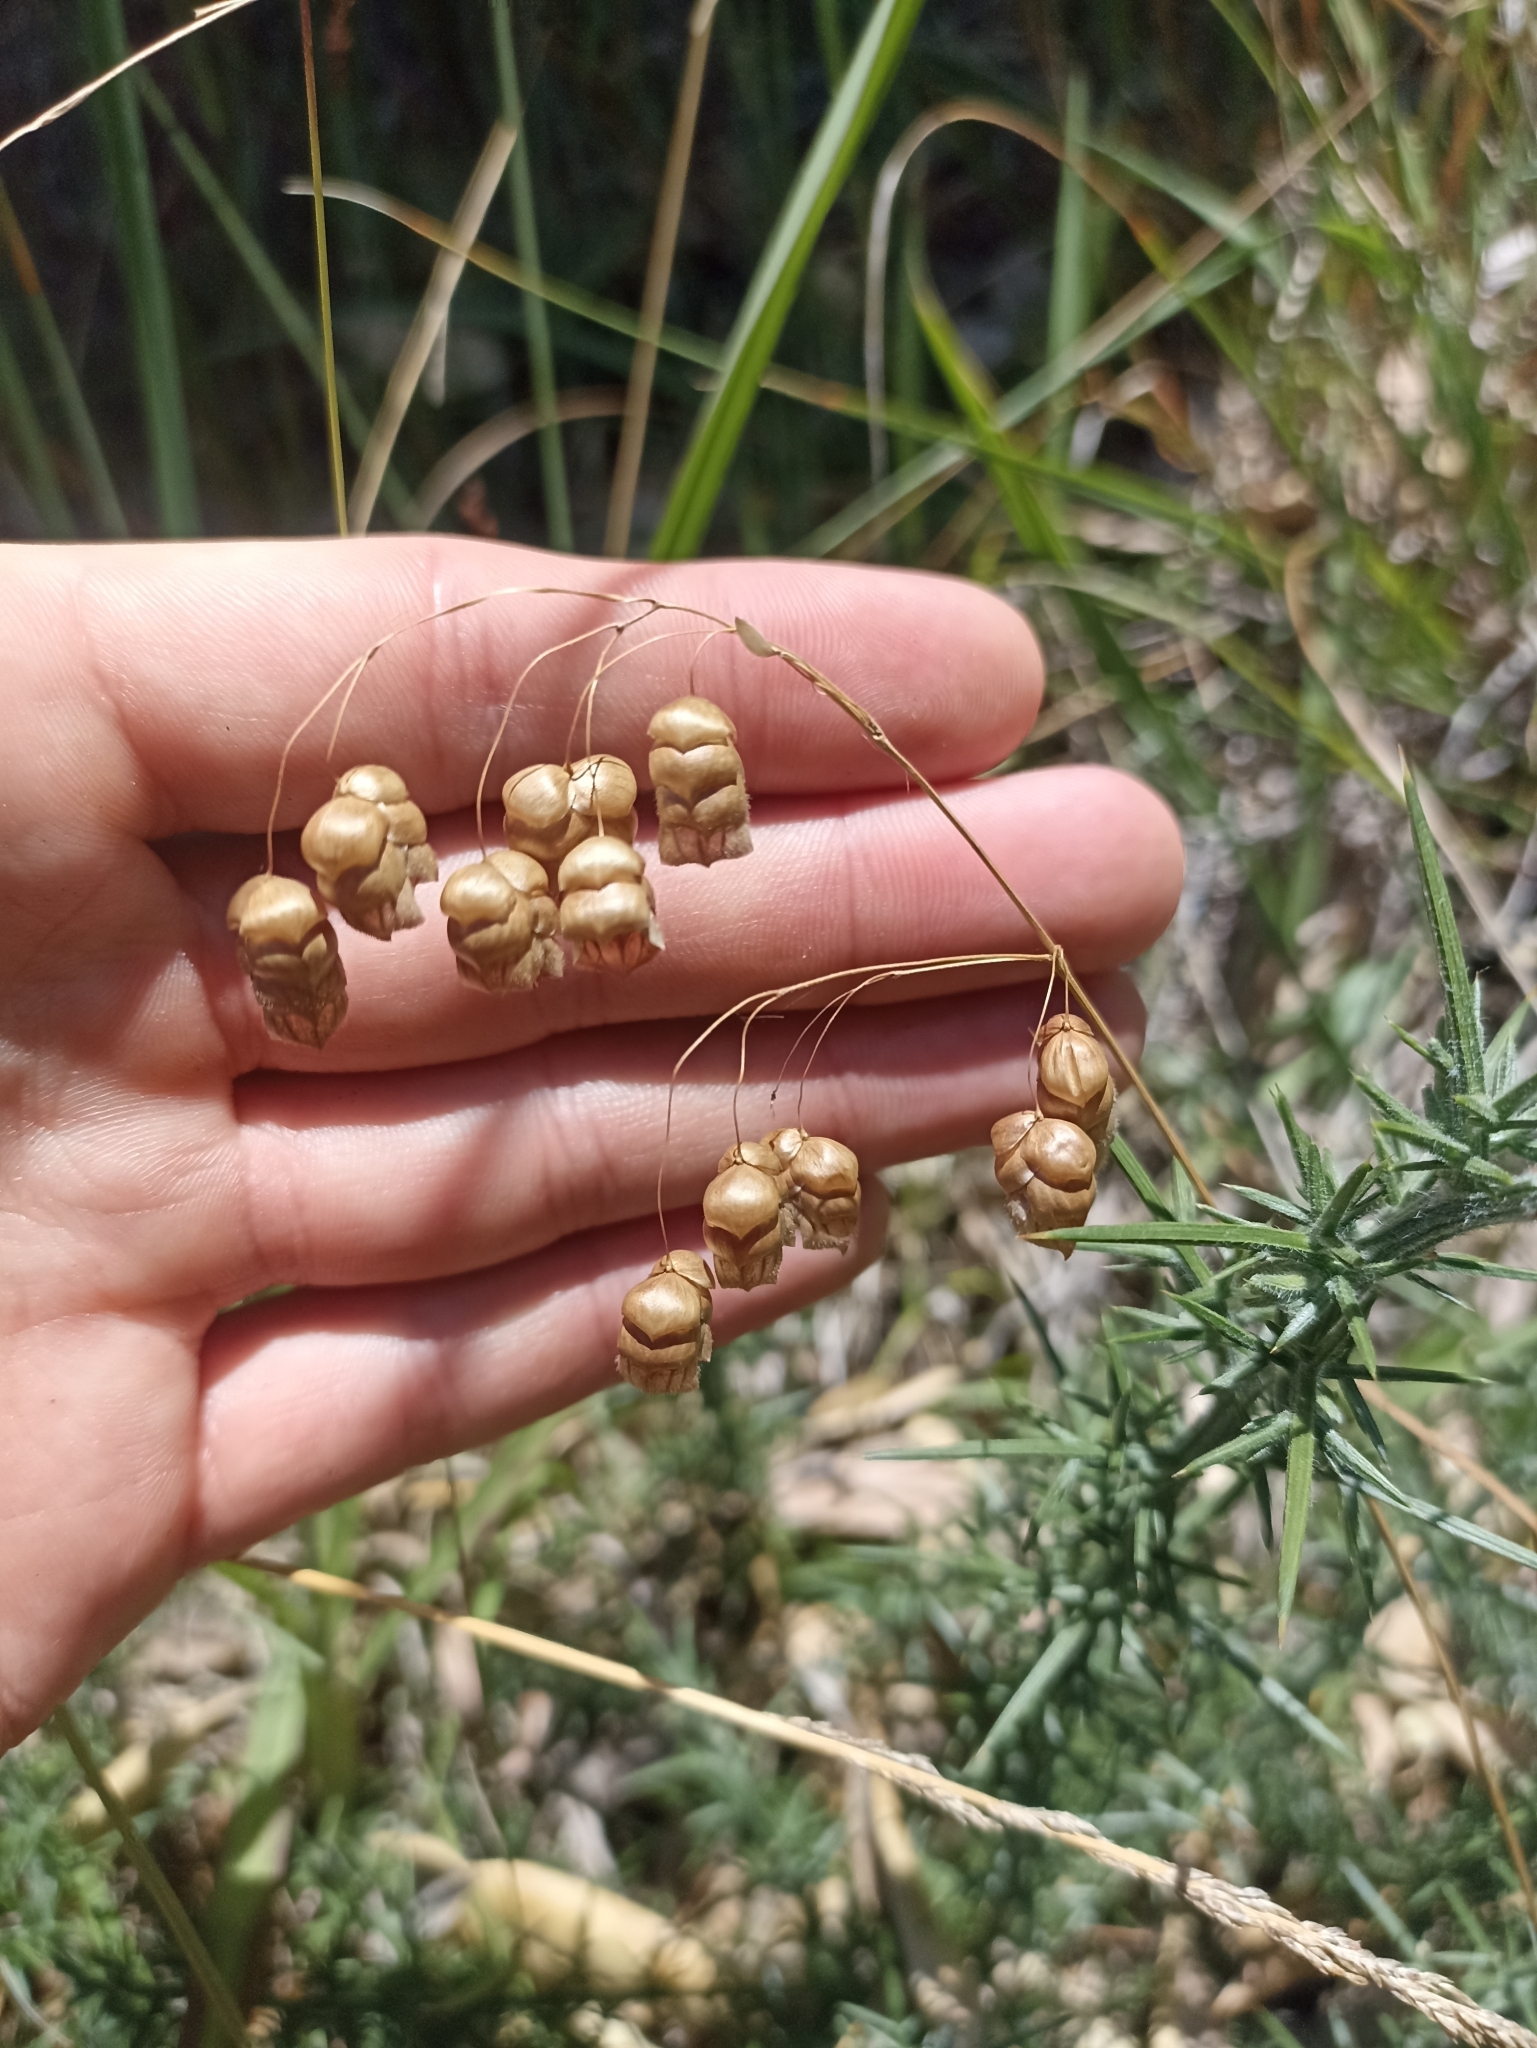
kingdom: Plantae
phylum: Tracheophyta
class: Liliopsida
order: Poales
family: Poaceae
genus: Briza
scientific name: Briza maxima
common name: Big quakinggrass
